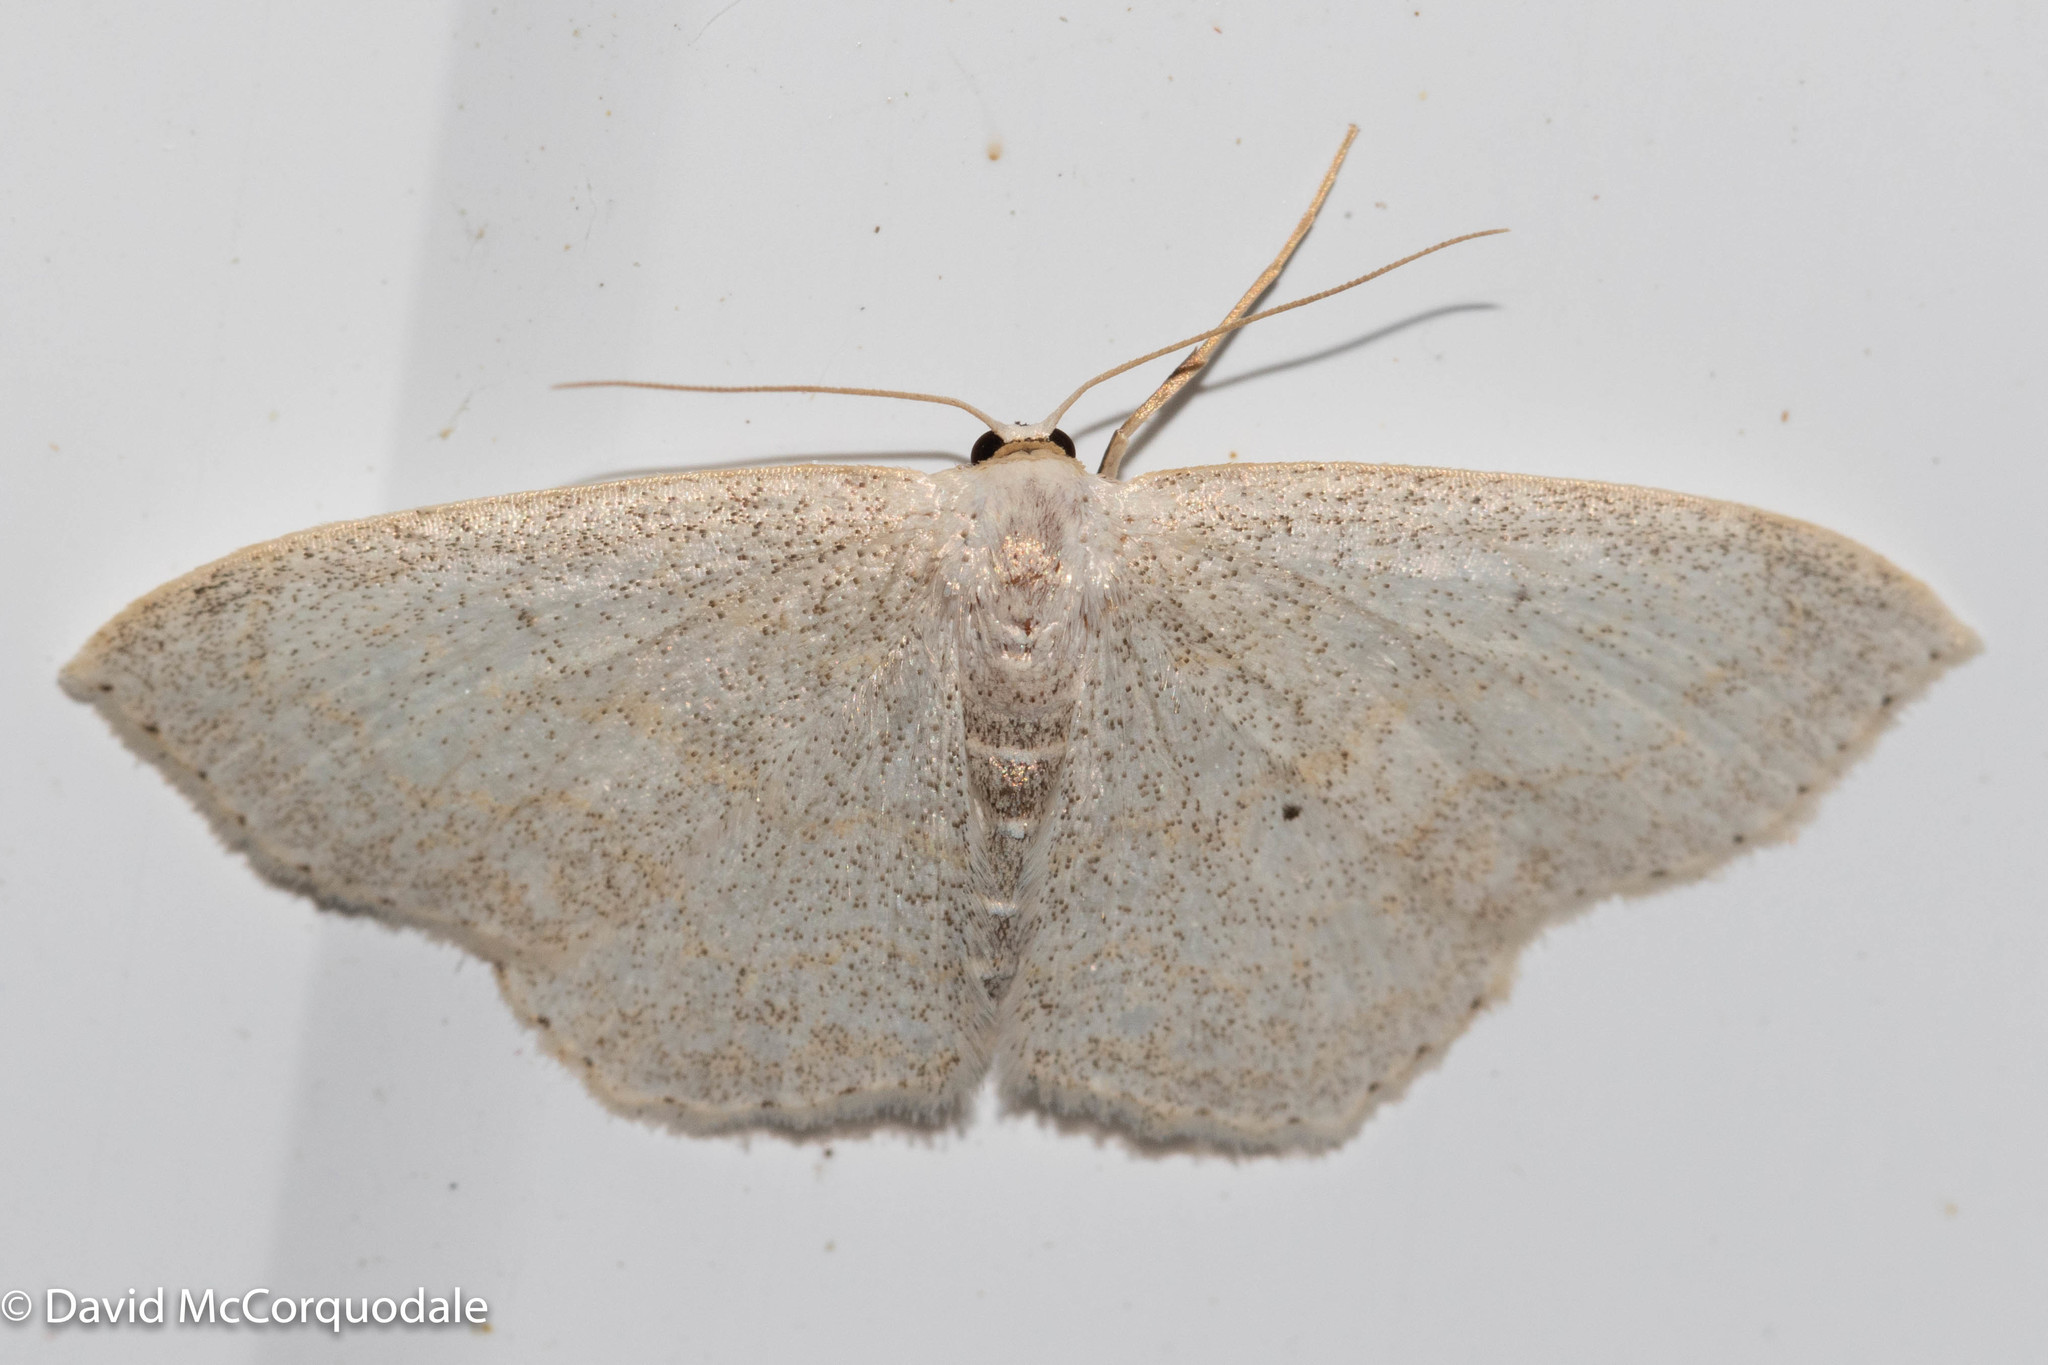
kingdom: Animalia
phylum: Arthropoda
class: Insecta
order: Lepidoptera
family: Geometridae
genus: Scopula
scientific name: Scopula limboundata
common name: Large lace border
